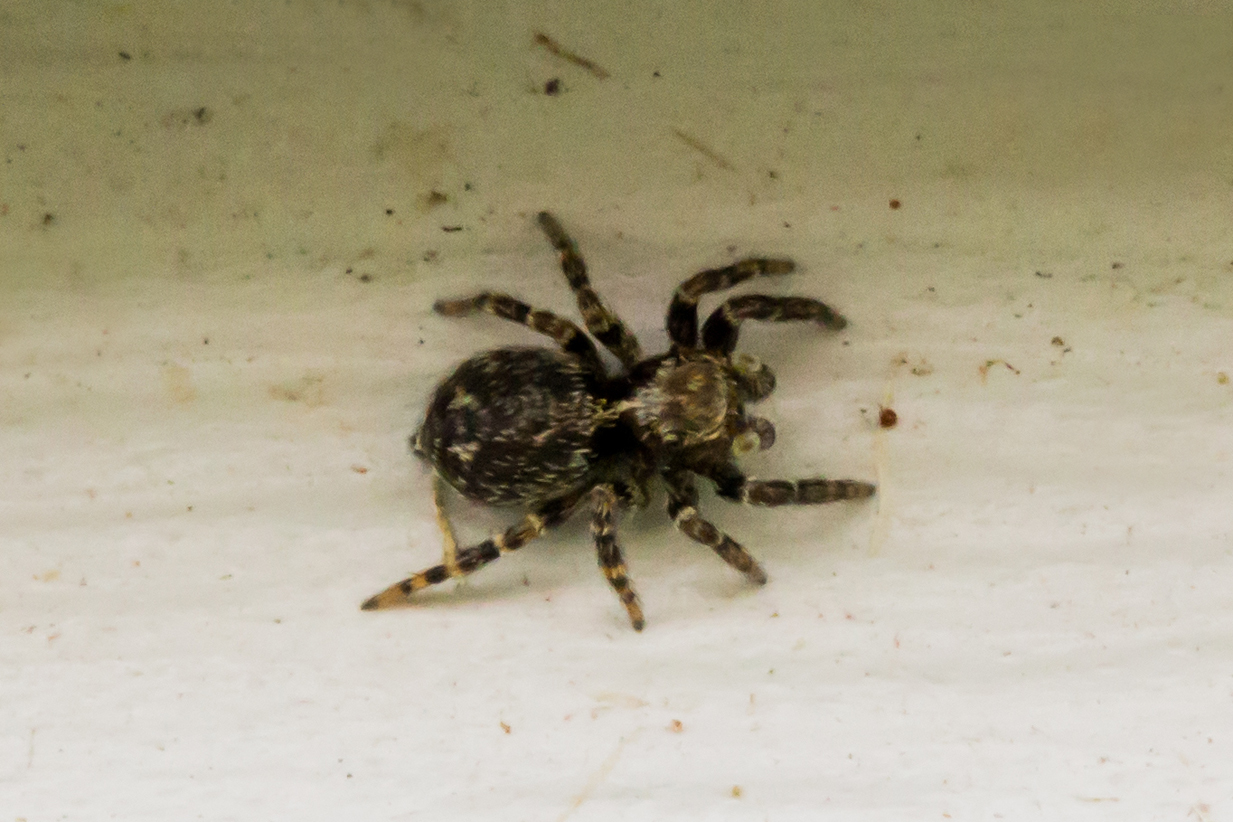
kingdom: Animalia
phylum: Arthropoda
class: Arachnida
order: Araneae
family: Salticidae
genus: Naphrys
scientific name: Naphrys pulex
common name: Flea jumping spider
